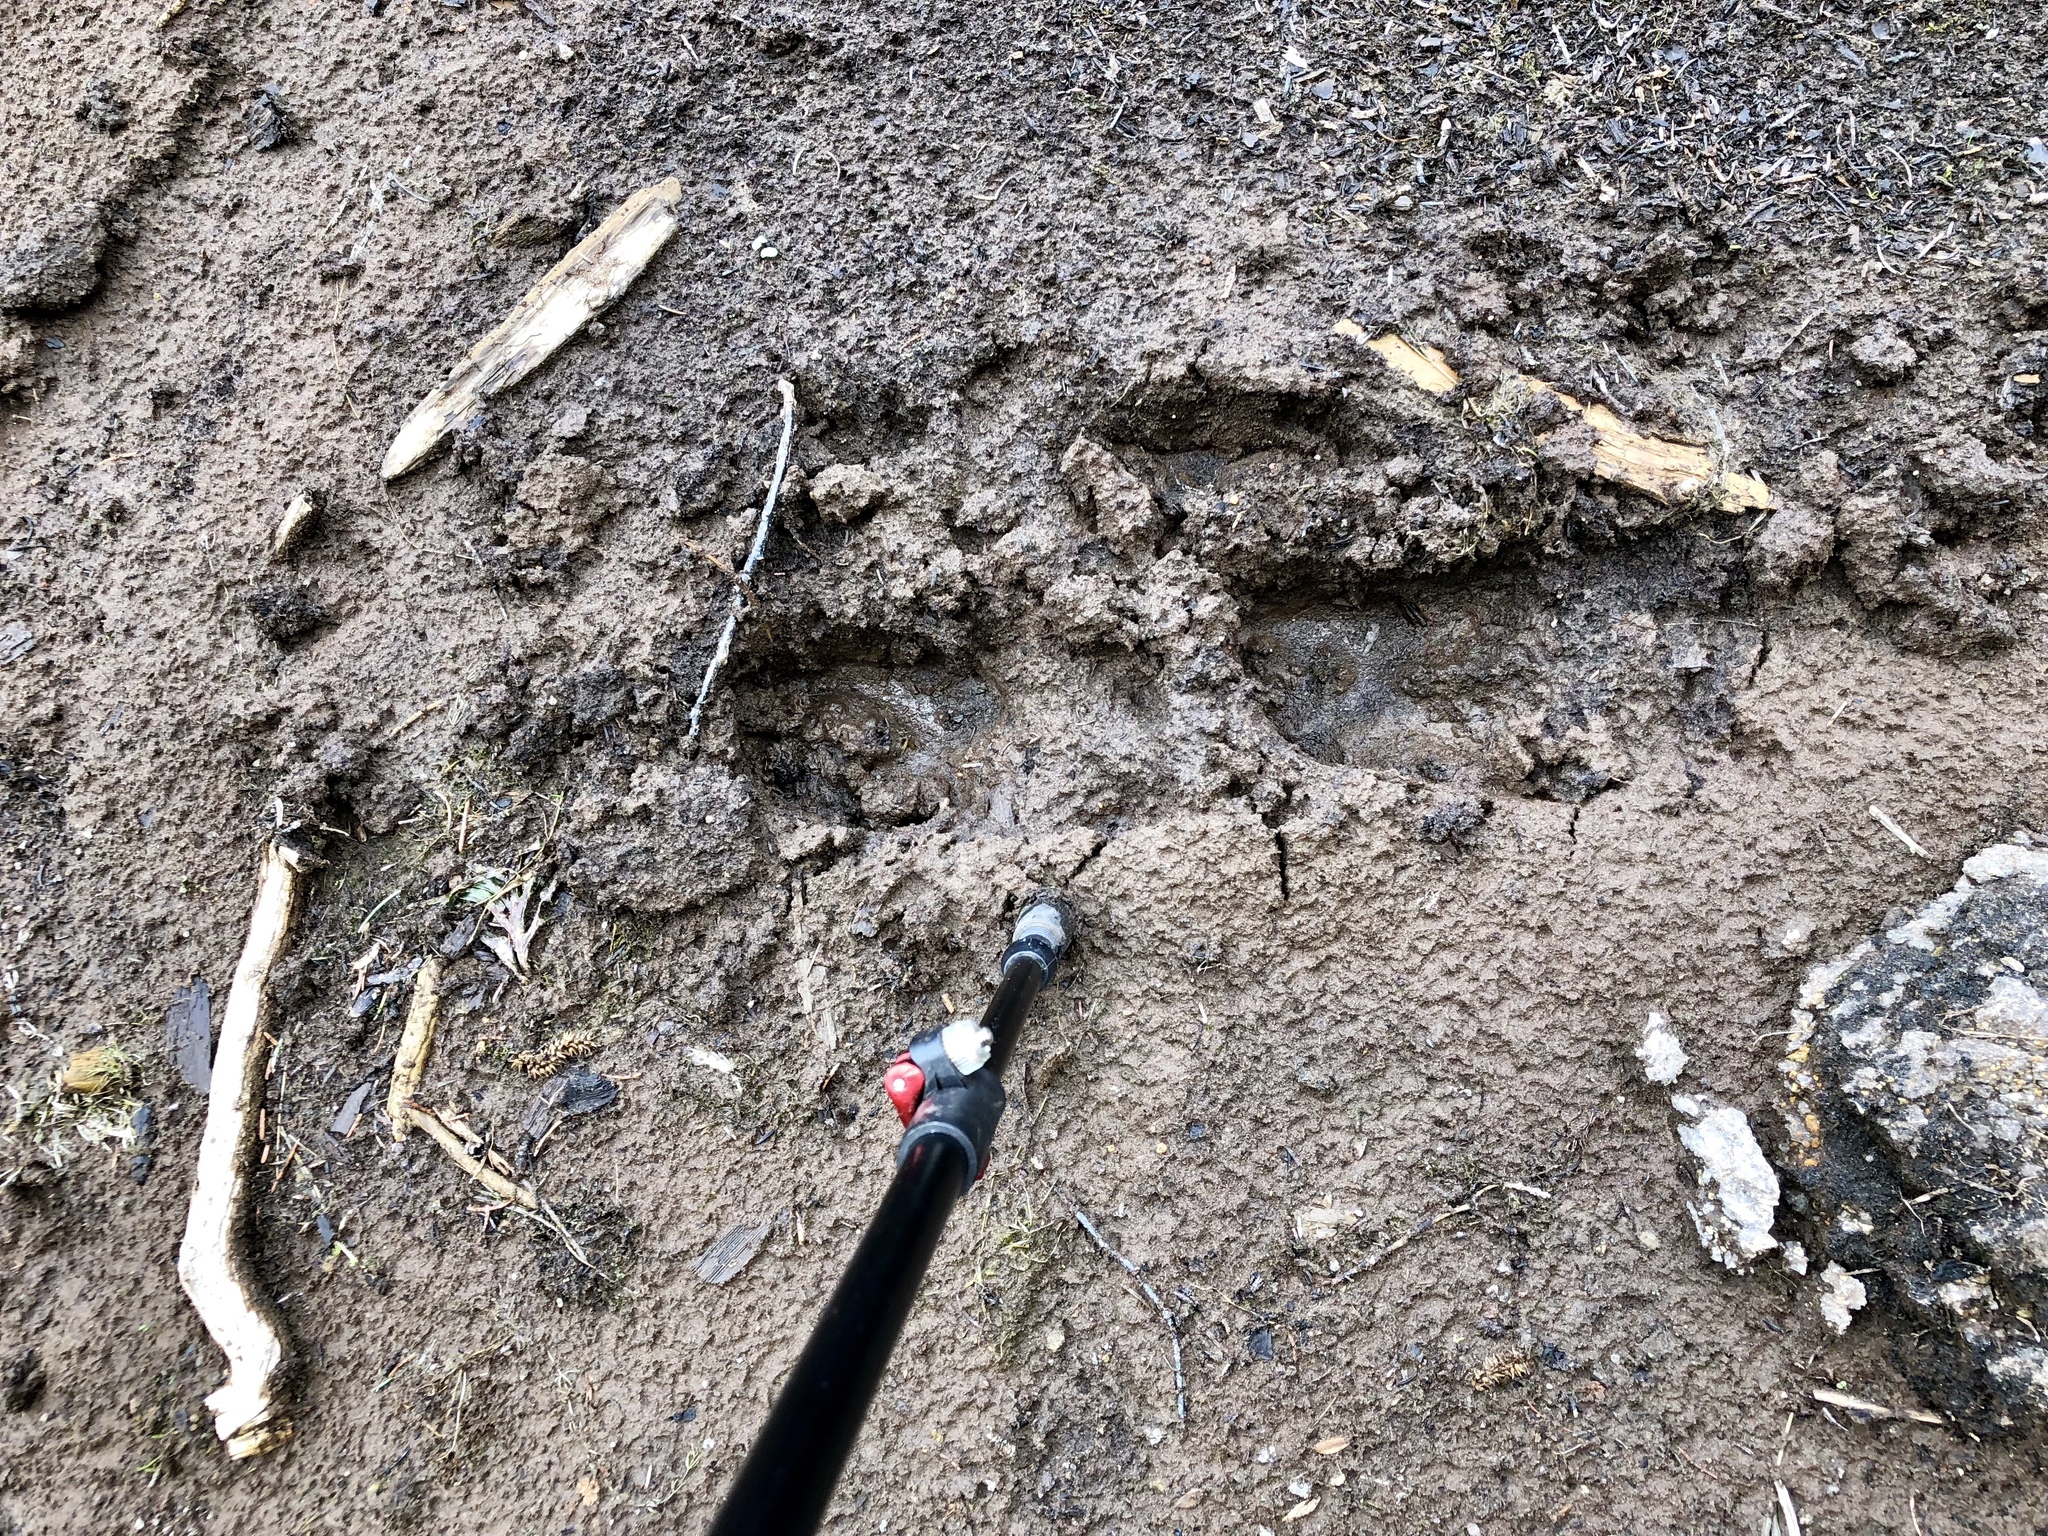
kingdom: Animalia
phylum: Chordata
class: Mammalia
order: Artiodactyla
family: Cervidae
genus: Alces
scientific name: Alces alces
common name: Moose
